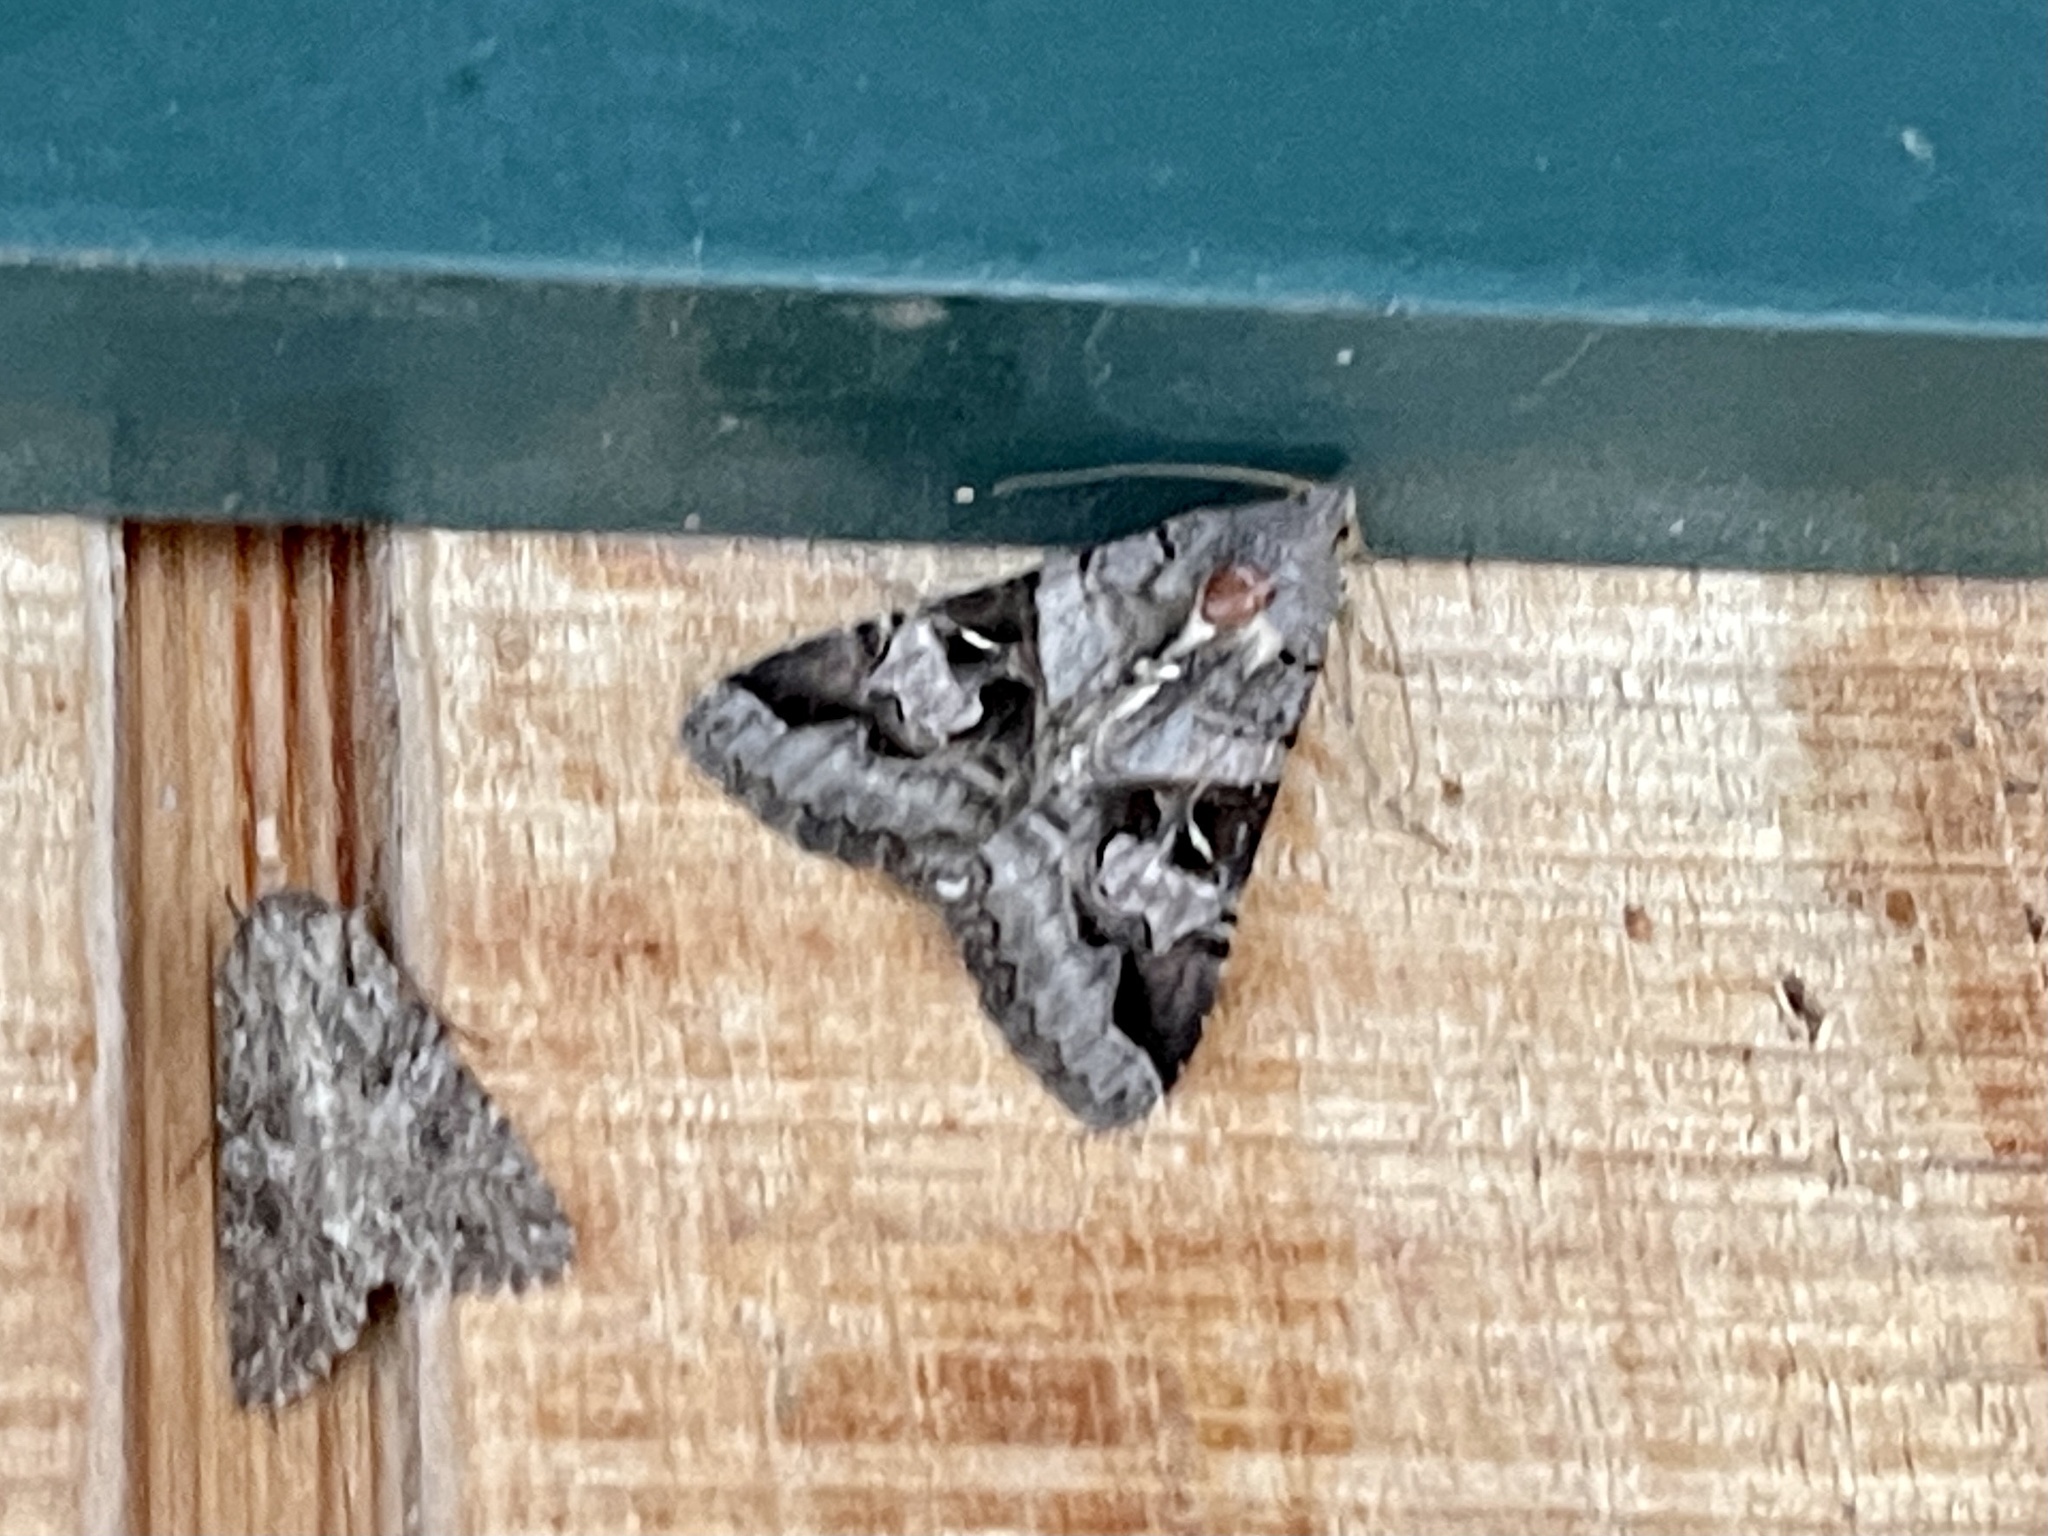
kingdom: Animalia
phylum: Arthropoda
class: Insecta
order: Lepidoptera
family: Erebidae
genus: Melipotis
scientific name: Melipotis indomita
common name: Moth
